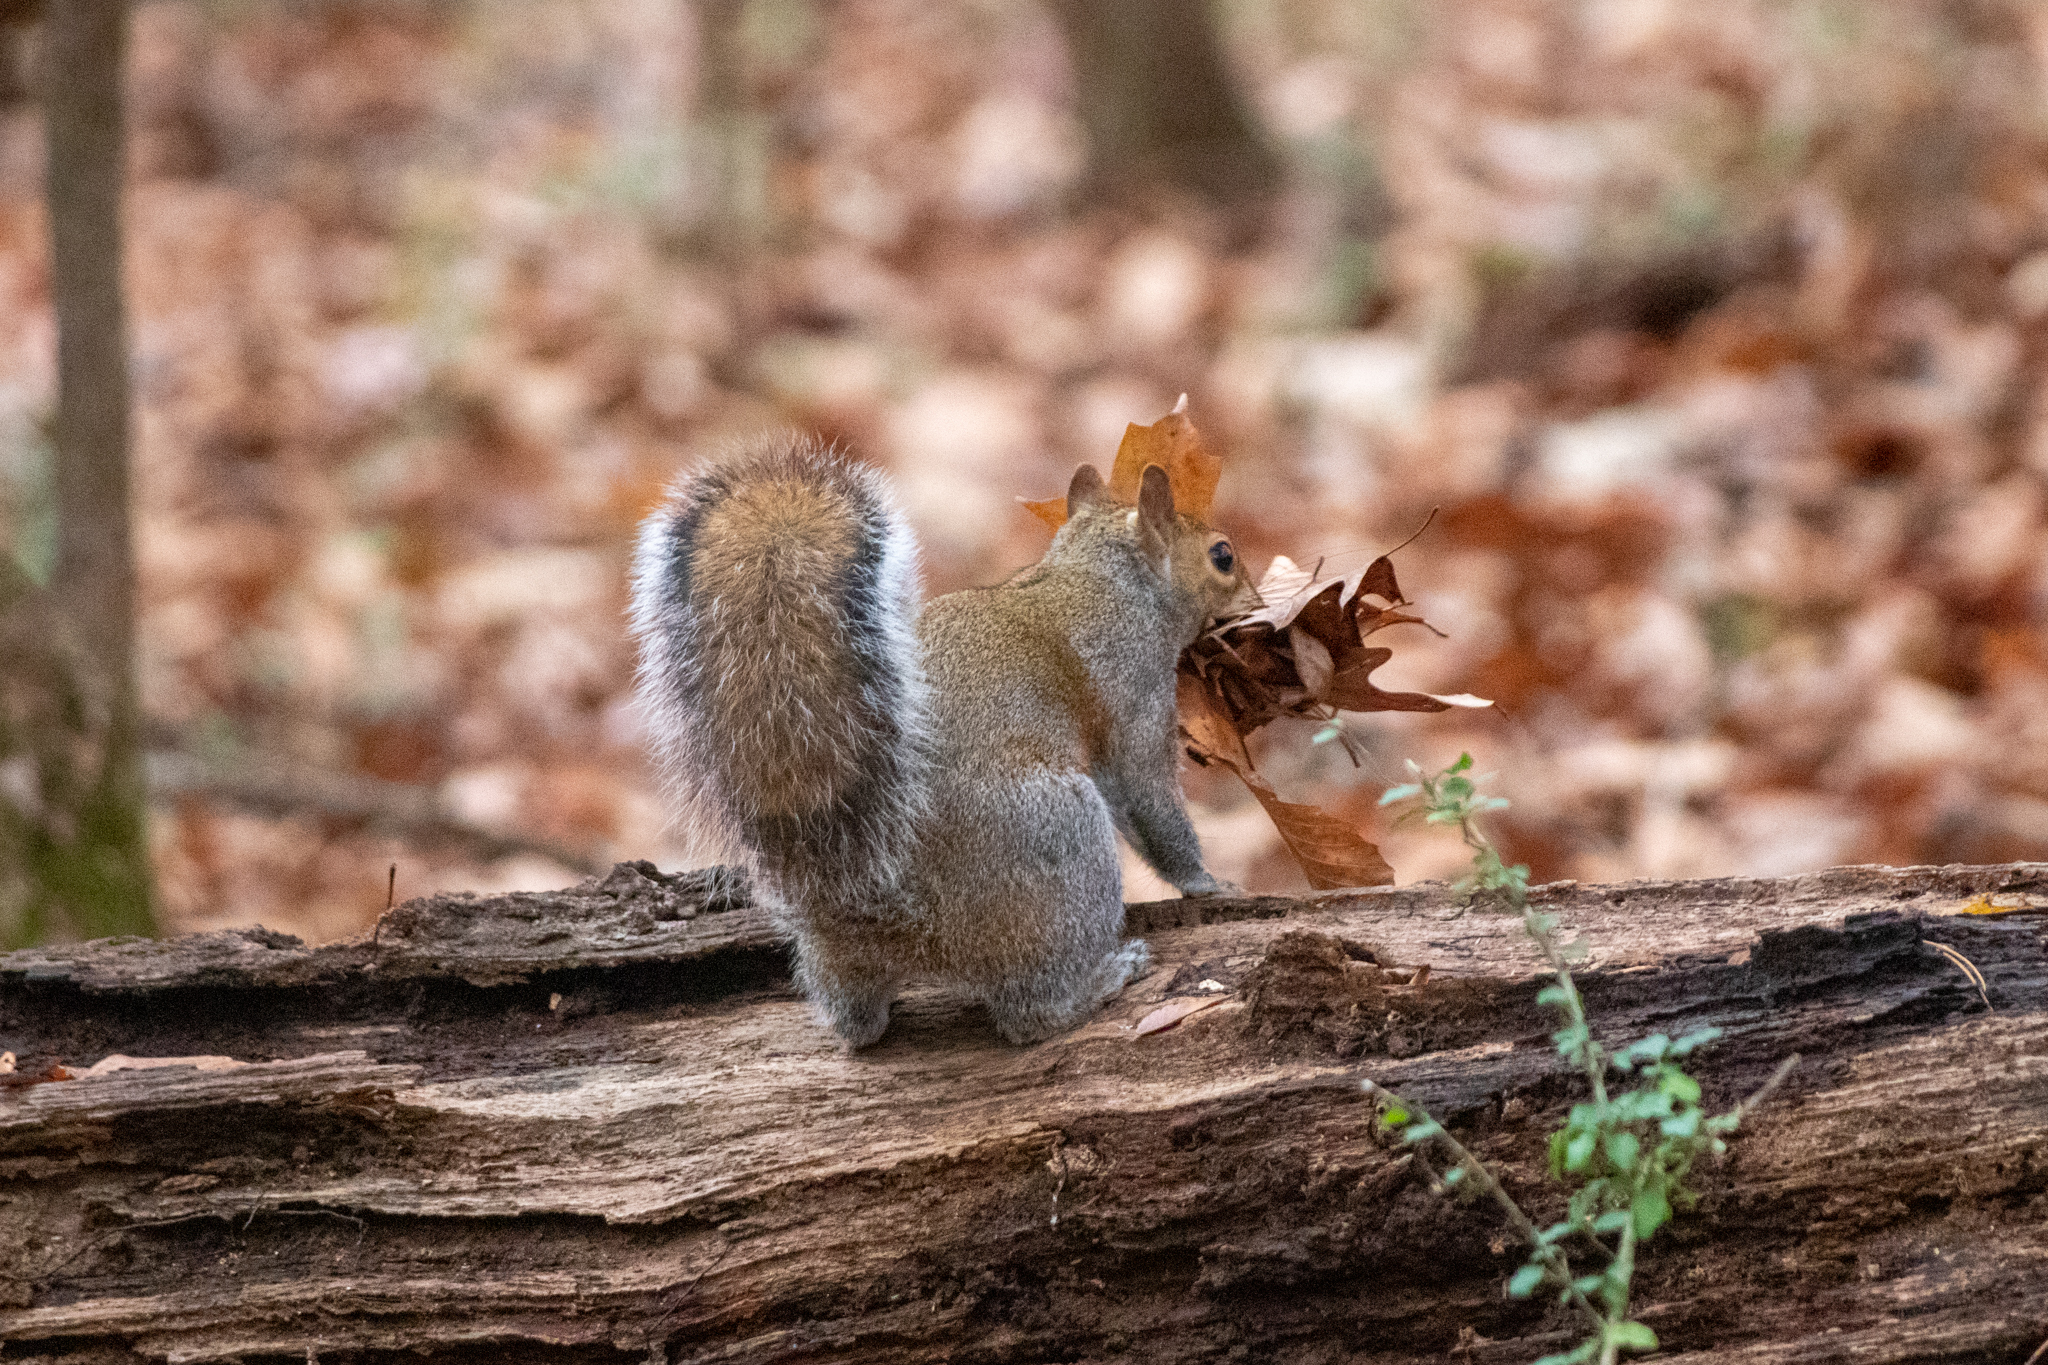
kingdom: Animalia
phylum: Chordata
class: Mammalia
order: Rodentia
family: Sciuridae
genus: Sciurus
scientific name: Sciurus carolinensis
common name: Eastern gray squirrel
